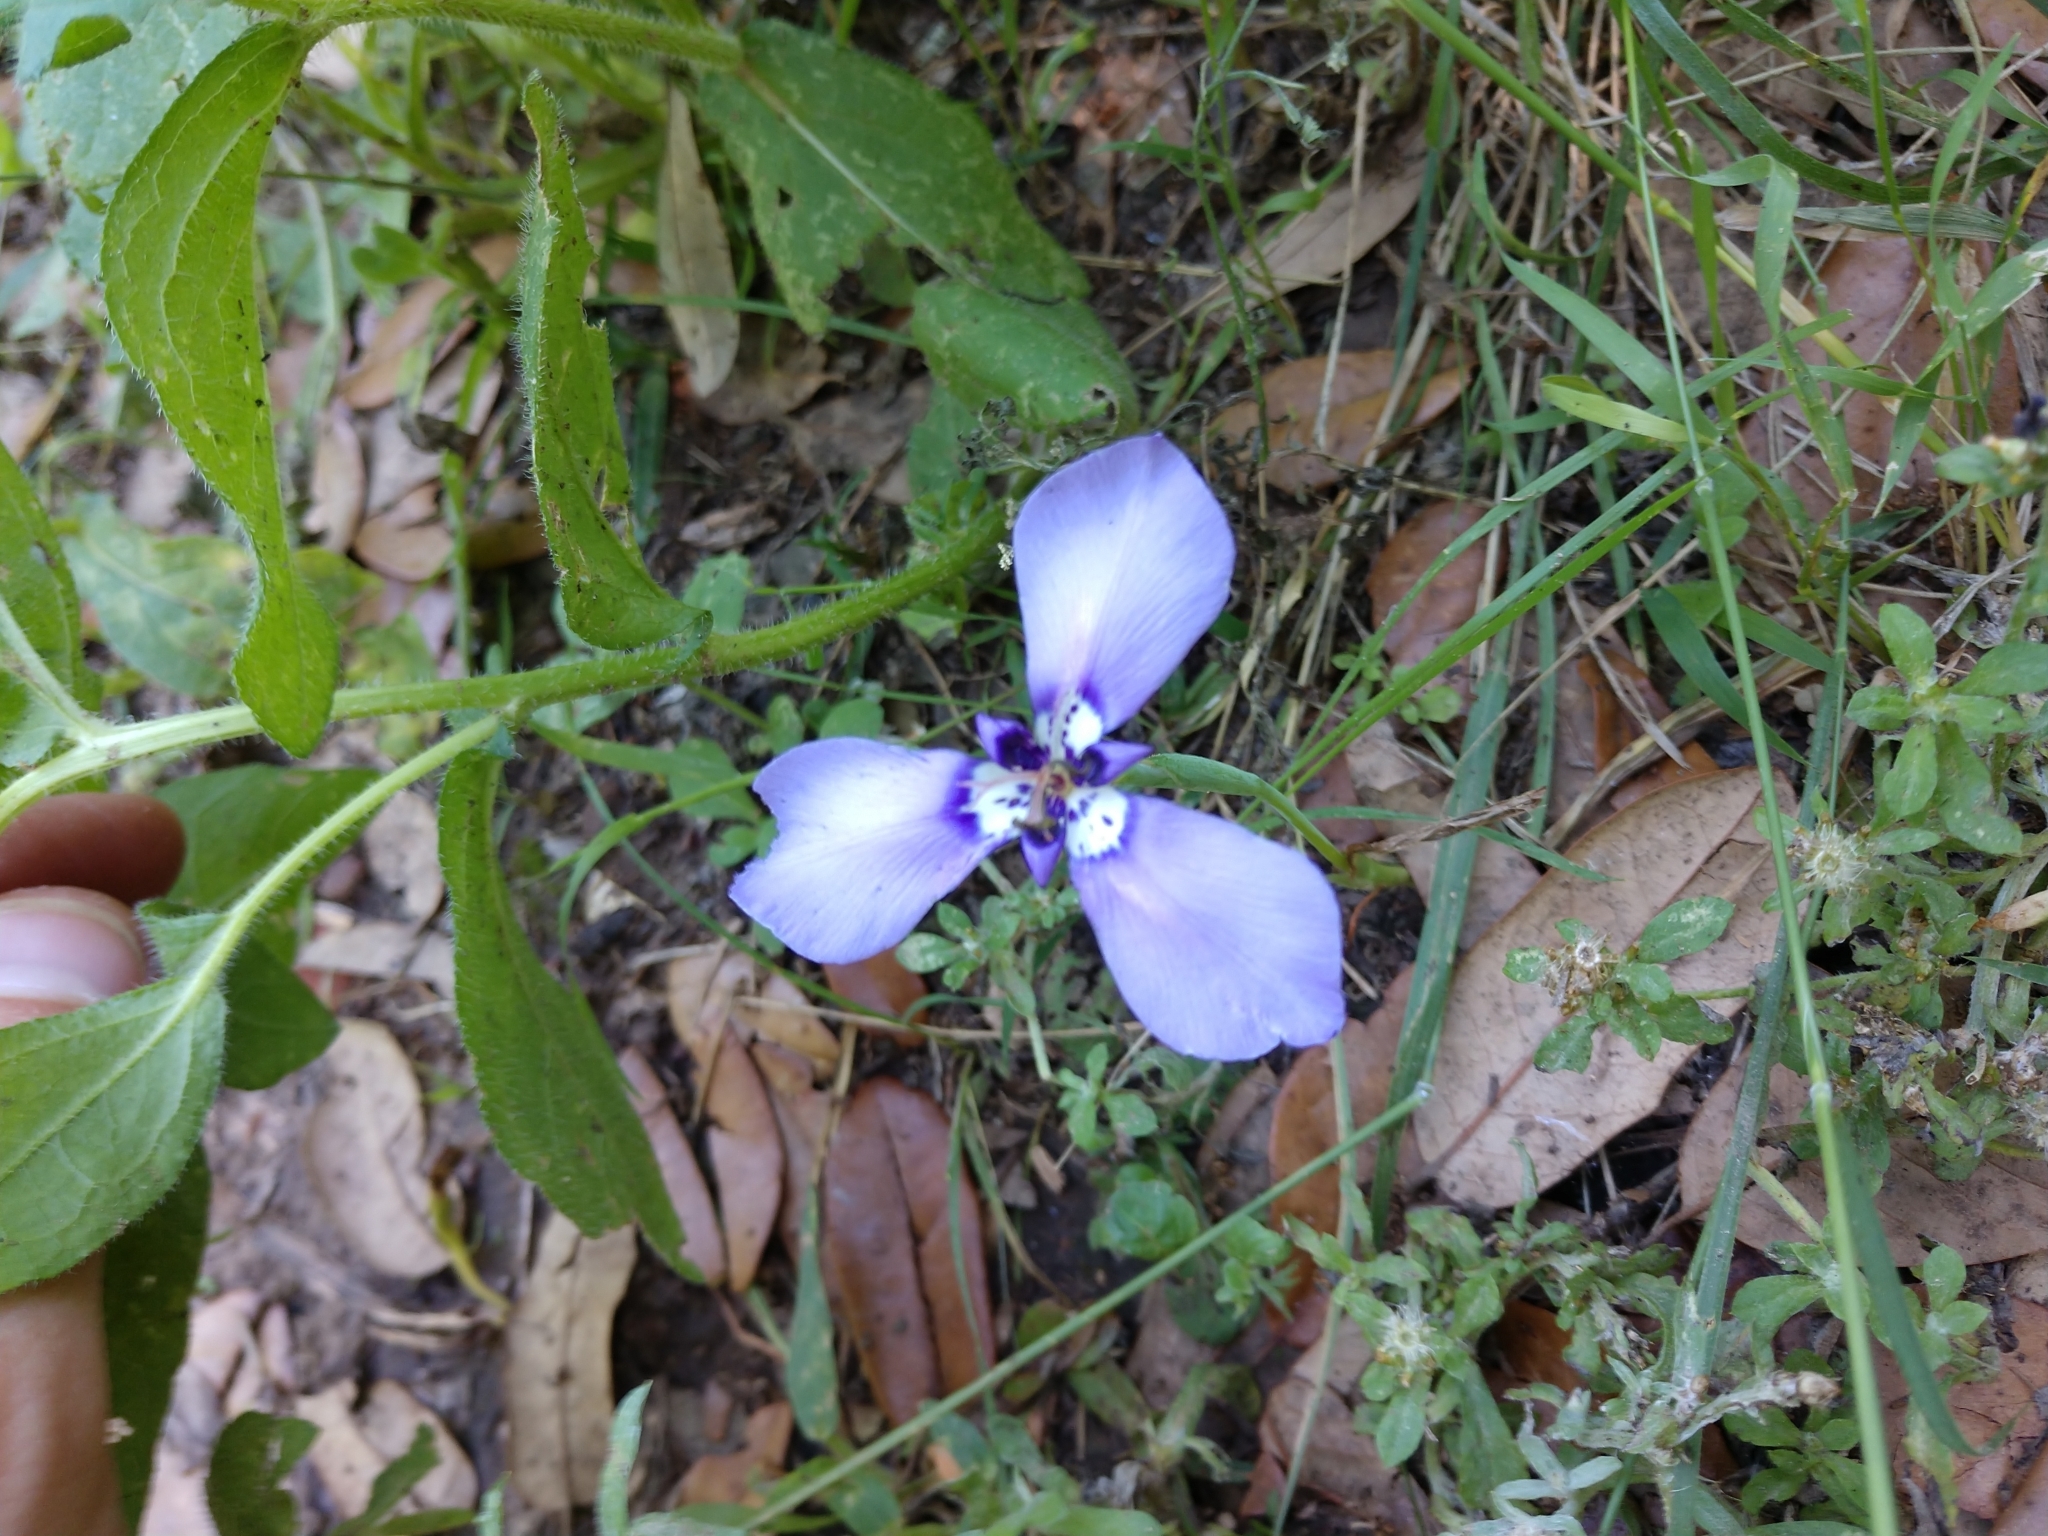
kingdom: Plantae
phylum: Tracheophyta
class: Liliopsida
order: Asparagales
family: Iridaceae
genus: Herbertia
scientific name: Herbertia lahue
